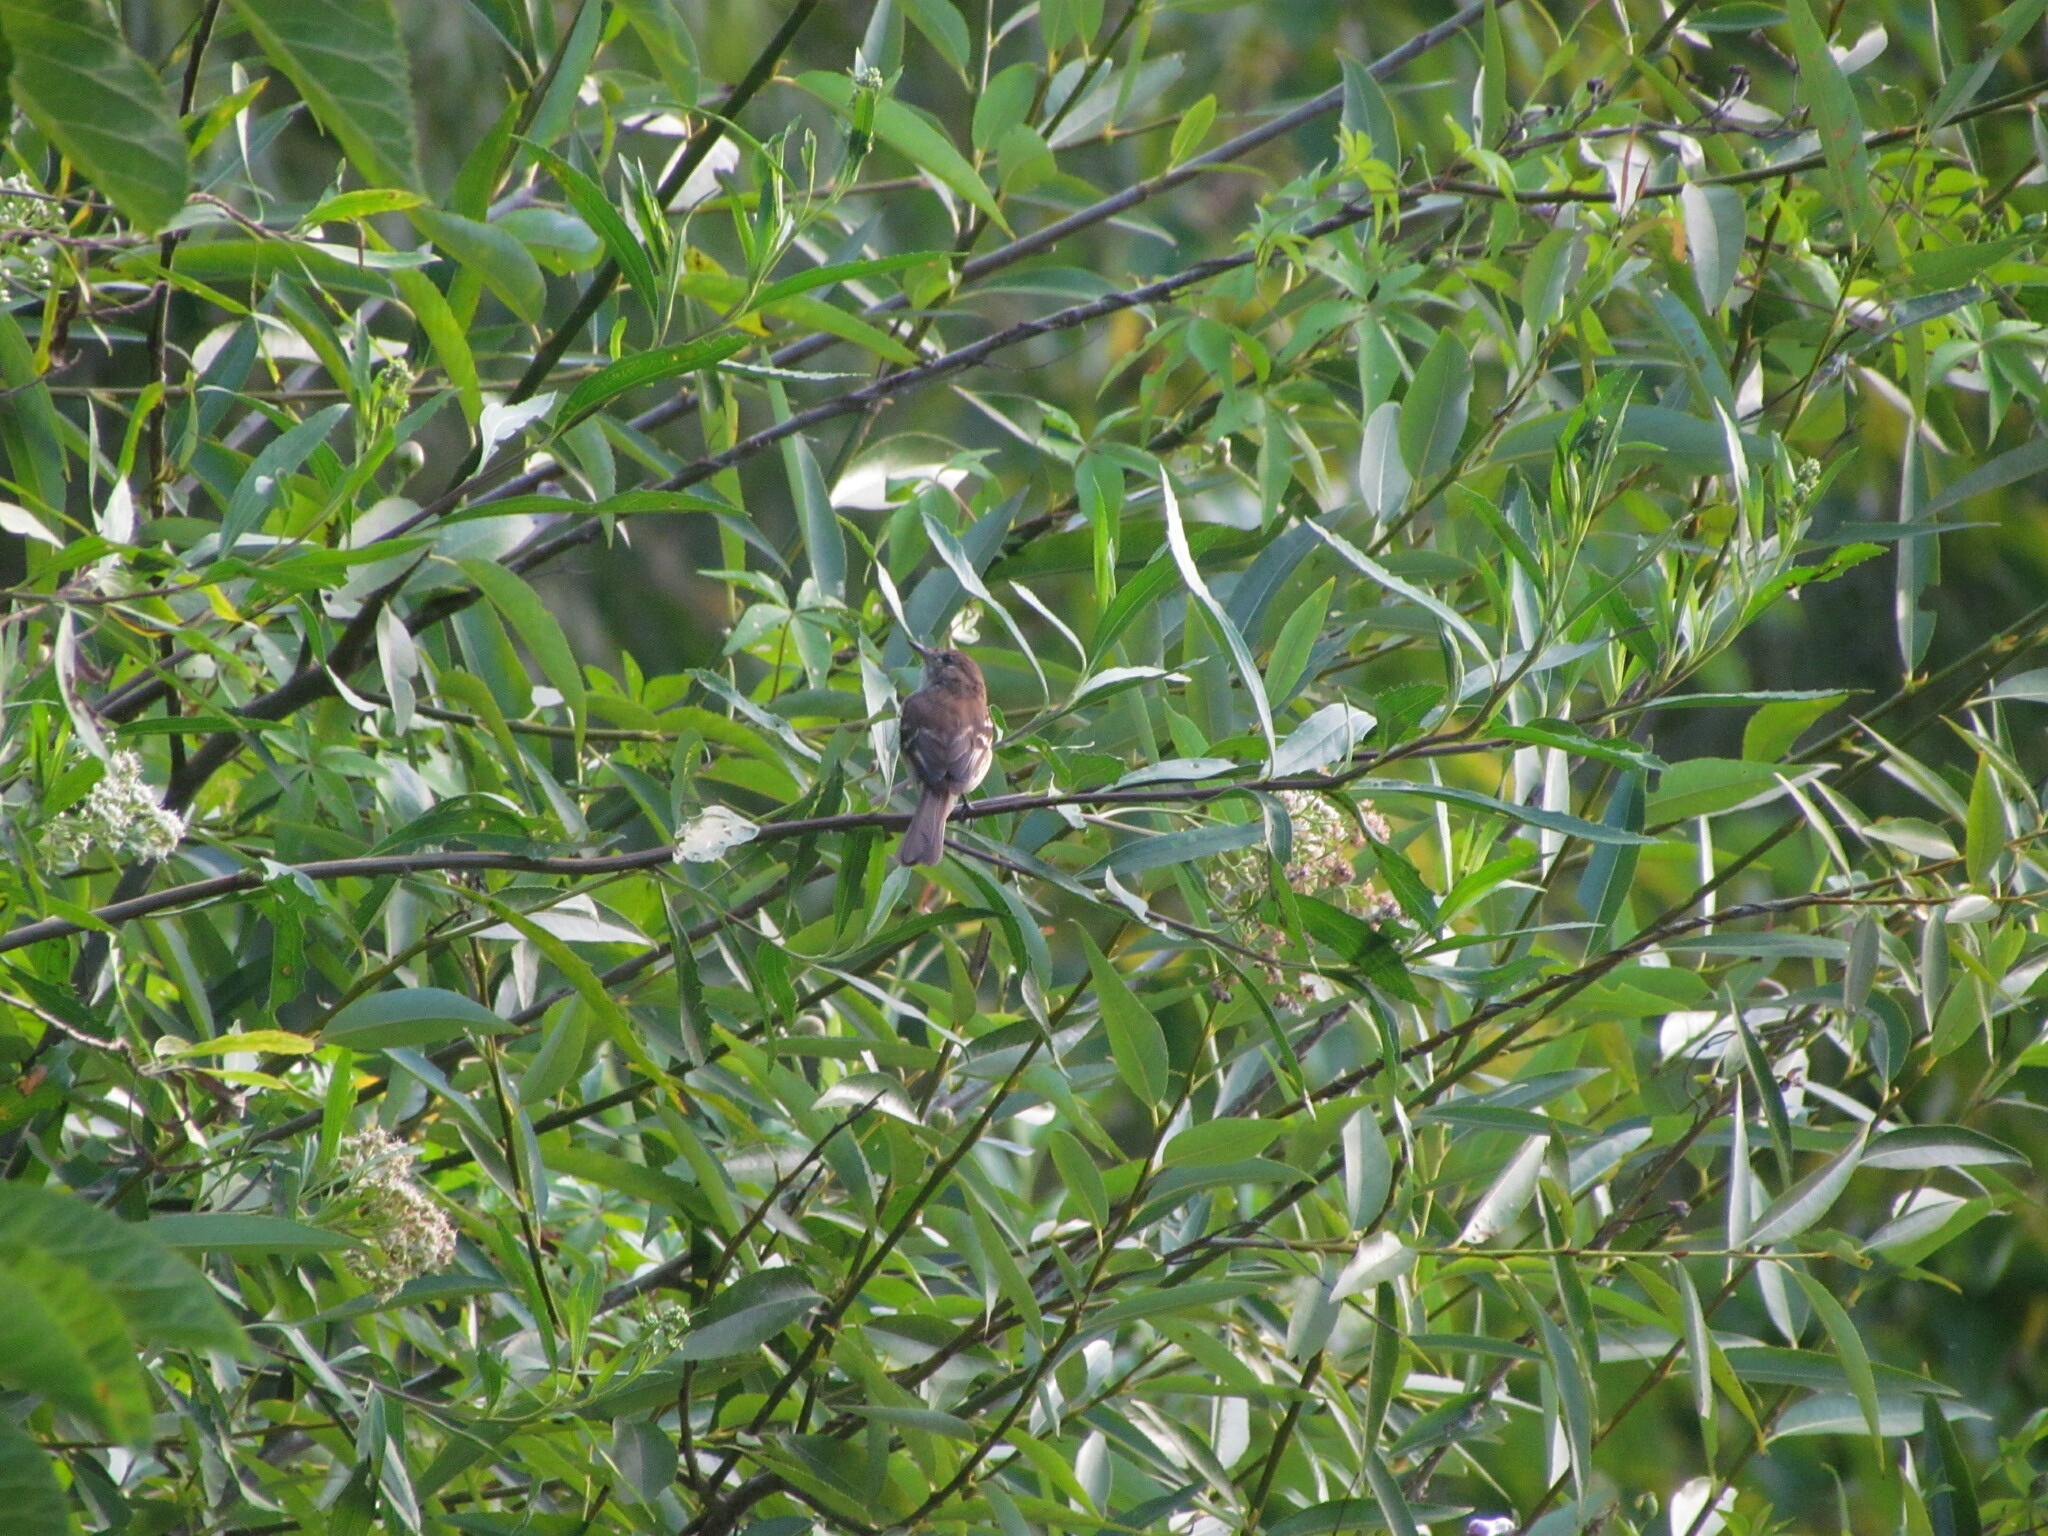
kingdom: Animalia
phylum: Chordata
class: Aves
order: Passeriformes
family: Tyrannidae
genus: Myiophobus
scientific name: Myiophobus fasciatus
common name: Bran-colored flycatcher
